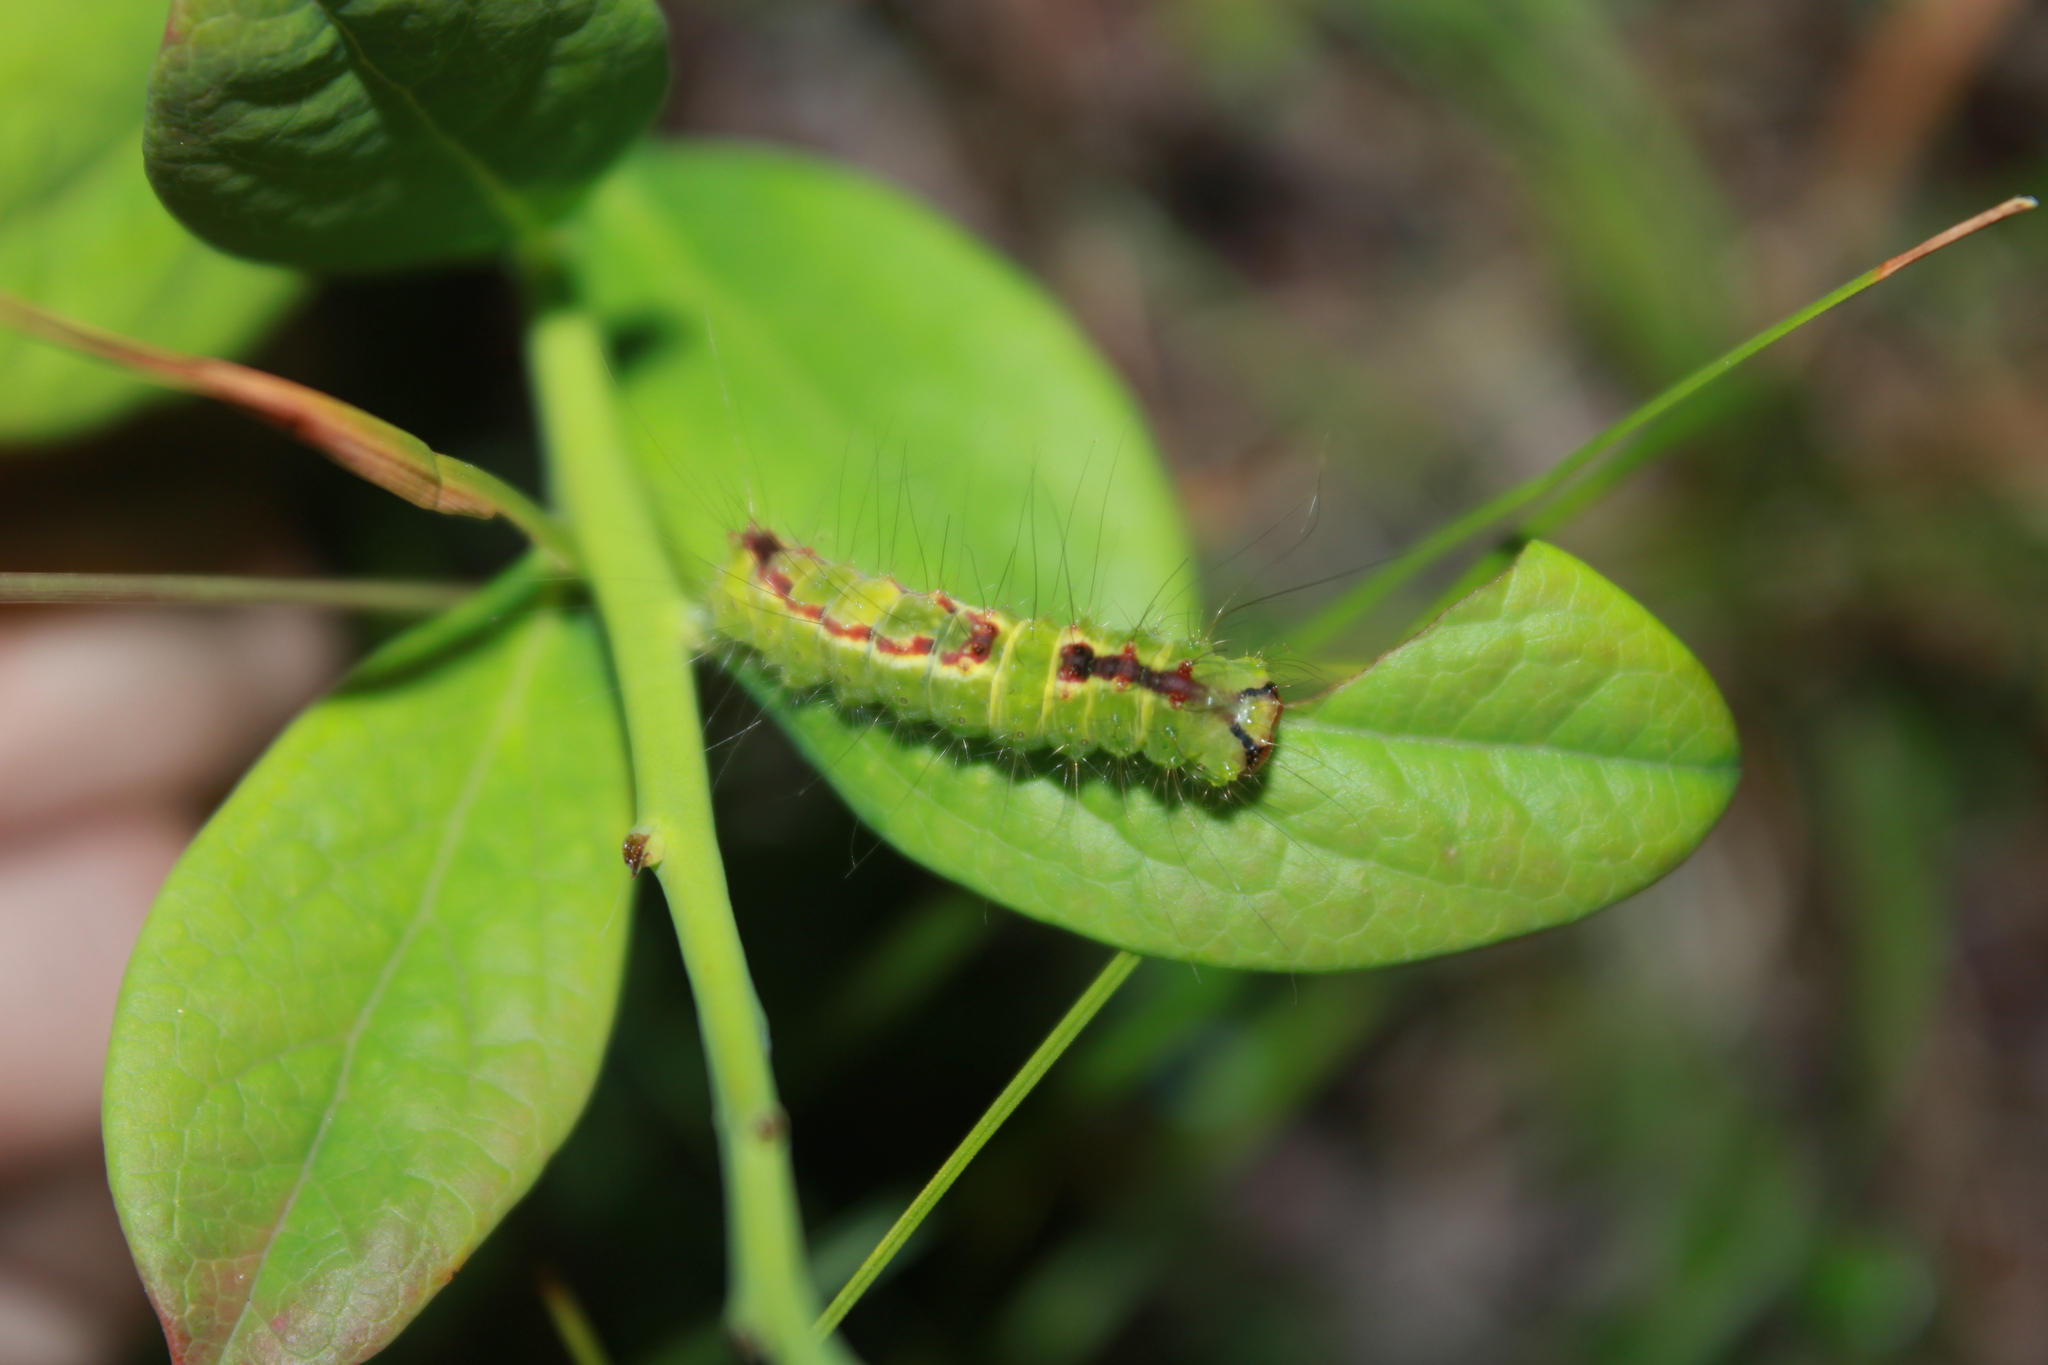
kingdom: Animalia
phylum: Arthropoda
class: Insecta
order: Lepidoptera
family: Noctuidae
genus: Acronicta
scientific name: Acronicta tritona
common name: Triton dagger
